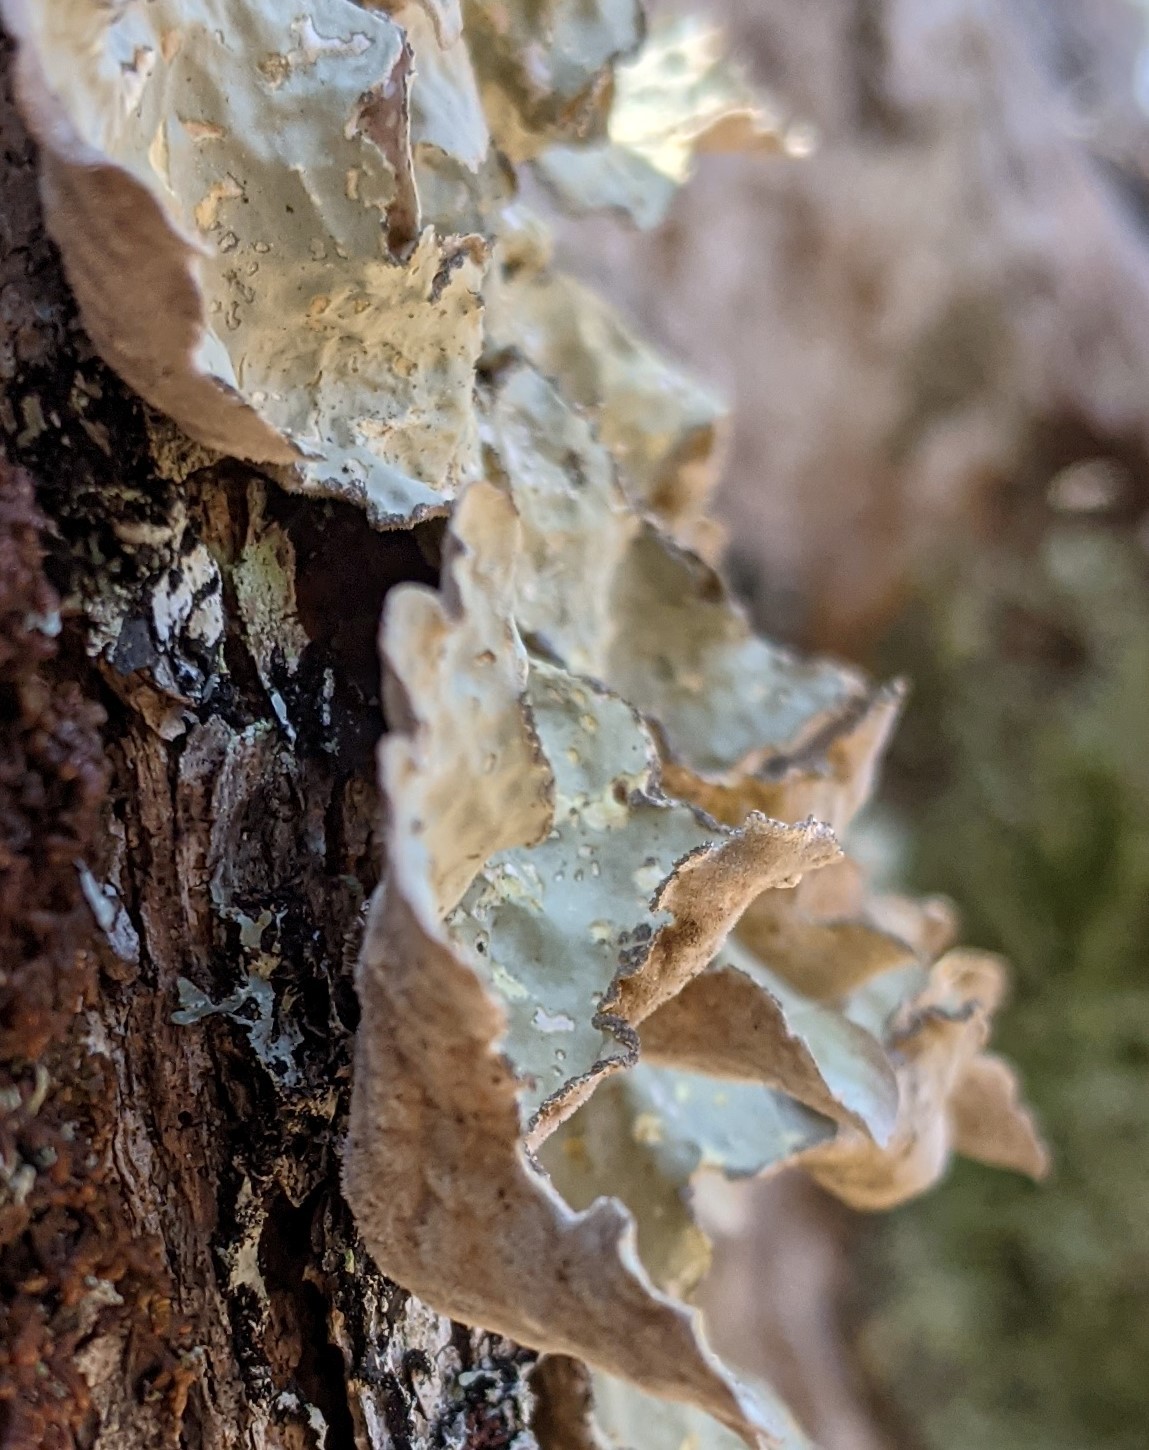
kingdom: Fungi
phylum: Ascomycota
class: Lecanoromycetes
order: Peltigerales
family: Lobariaceae
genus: Lobarina
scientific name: Lobarina scrobiculata
